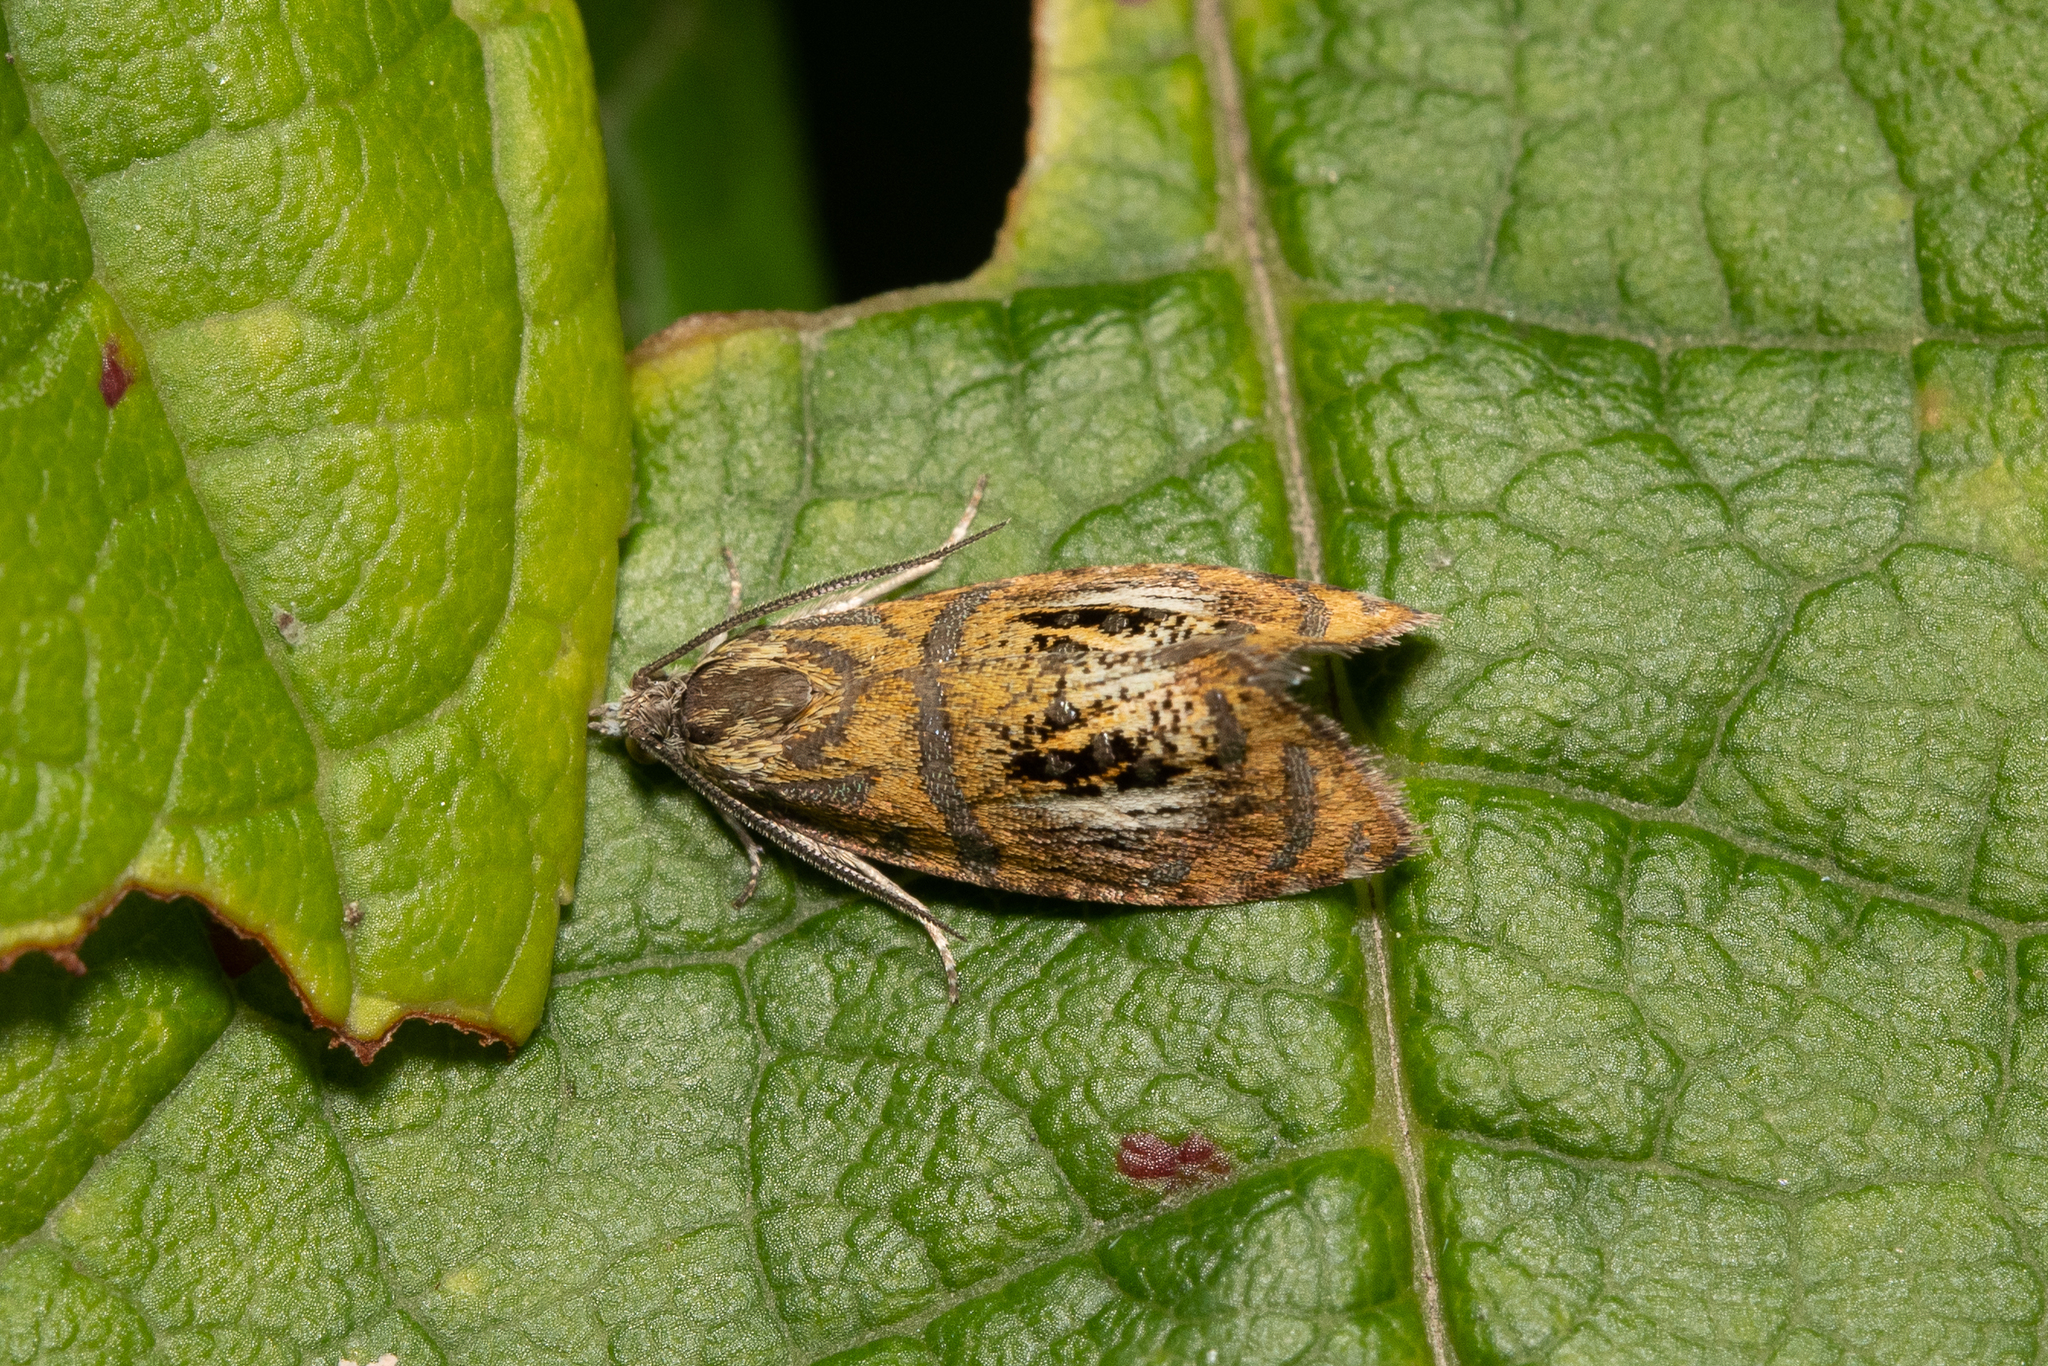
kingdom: Animalia
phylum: Arthropoda
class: Insecta
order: Lepidoptera
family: Tortricidae
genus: Olethreutes
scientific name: Olethreutes arcuella
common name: Arched marble
